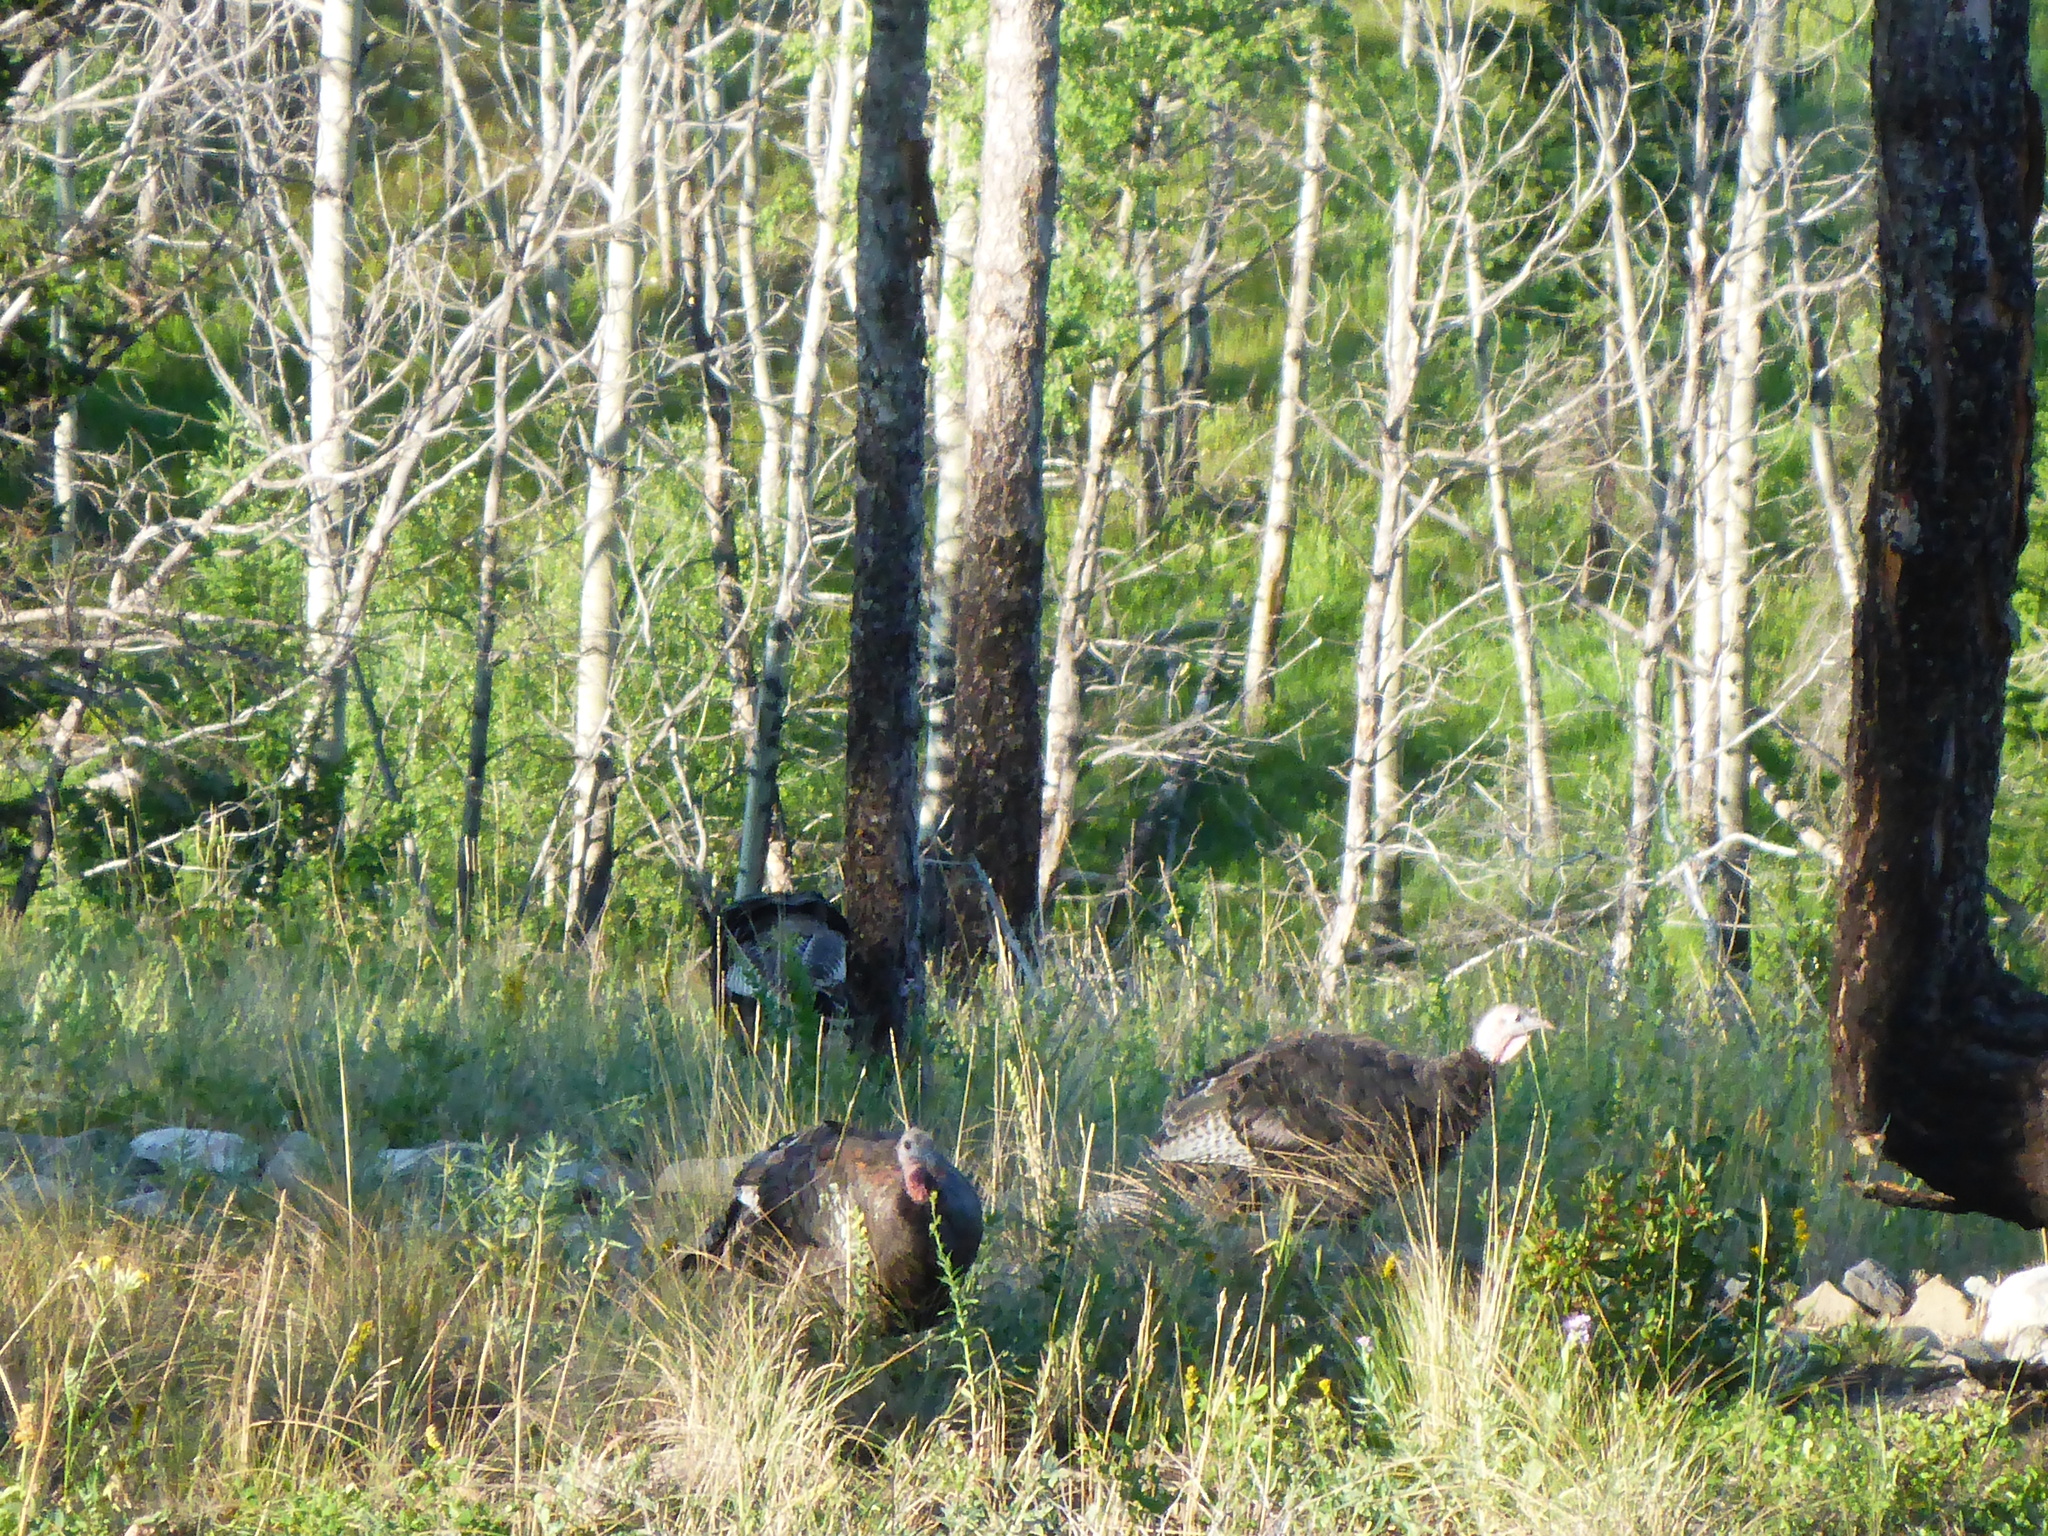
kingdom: Animalia
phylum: Chordata
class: Aves
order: Galliformes
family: Phasianidae
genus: Meleagris
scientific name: Meleagris gallopavo
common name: Wild turkey
